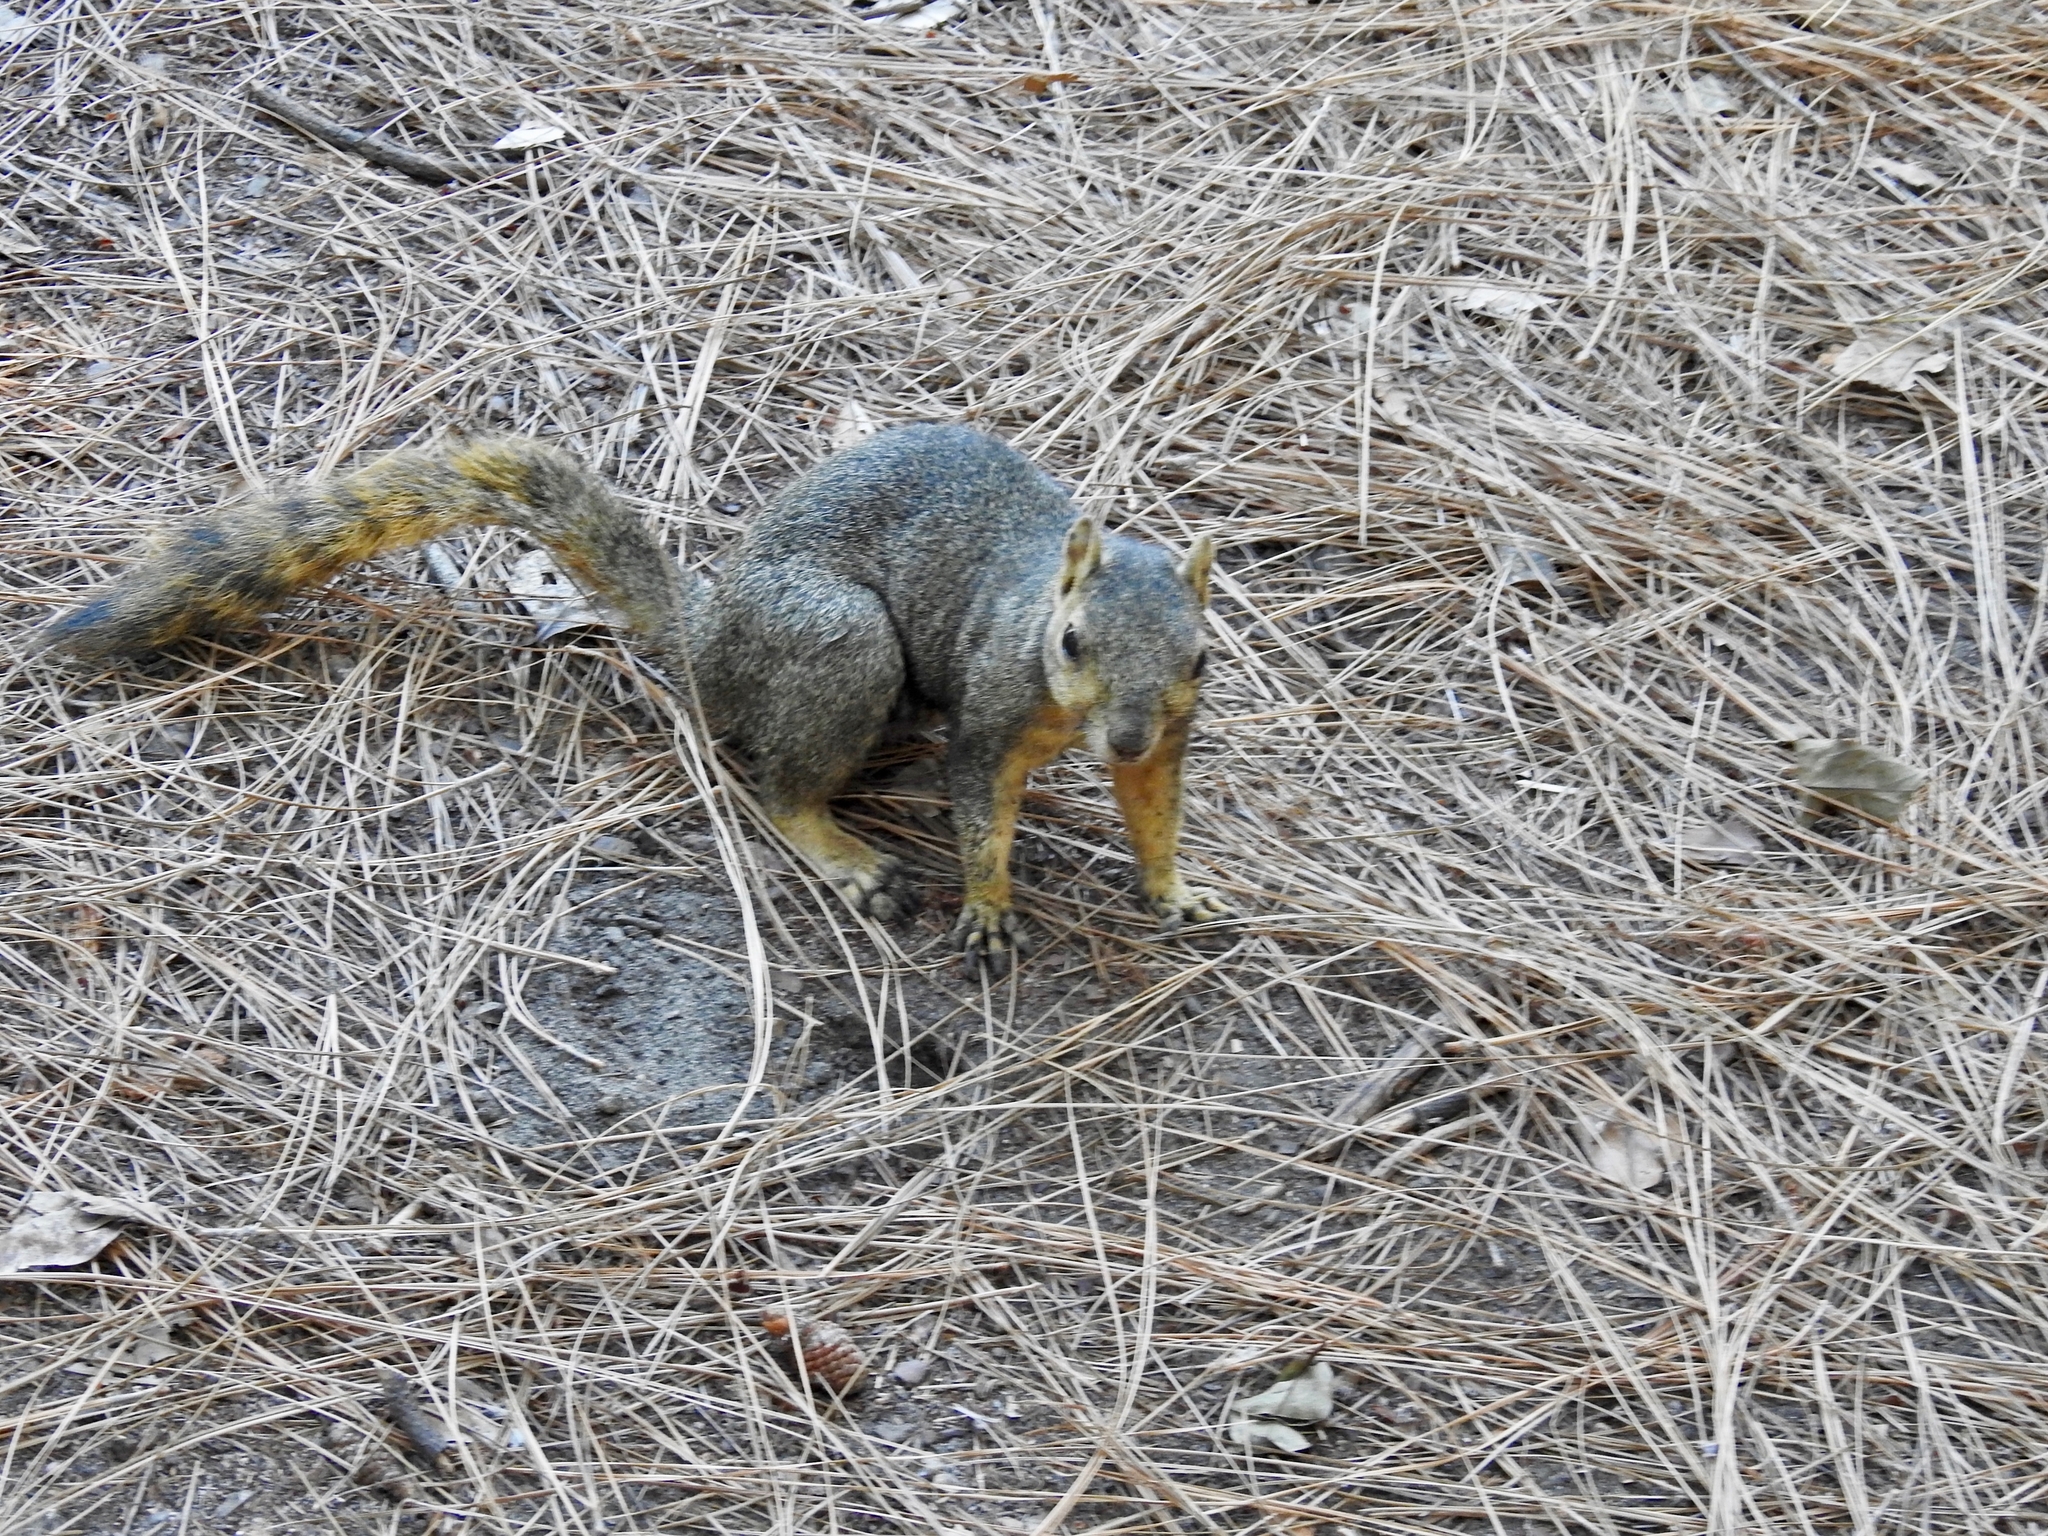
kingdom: Animalia
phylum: Chordata
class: Mammalia
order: Rodentia
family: Sciuridae
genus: Sciurus
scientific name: Sciurus niger
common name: Fox squirrel
